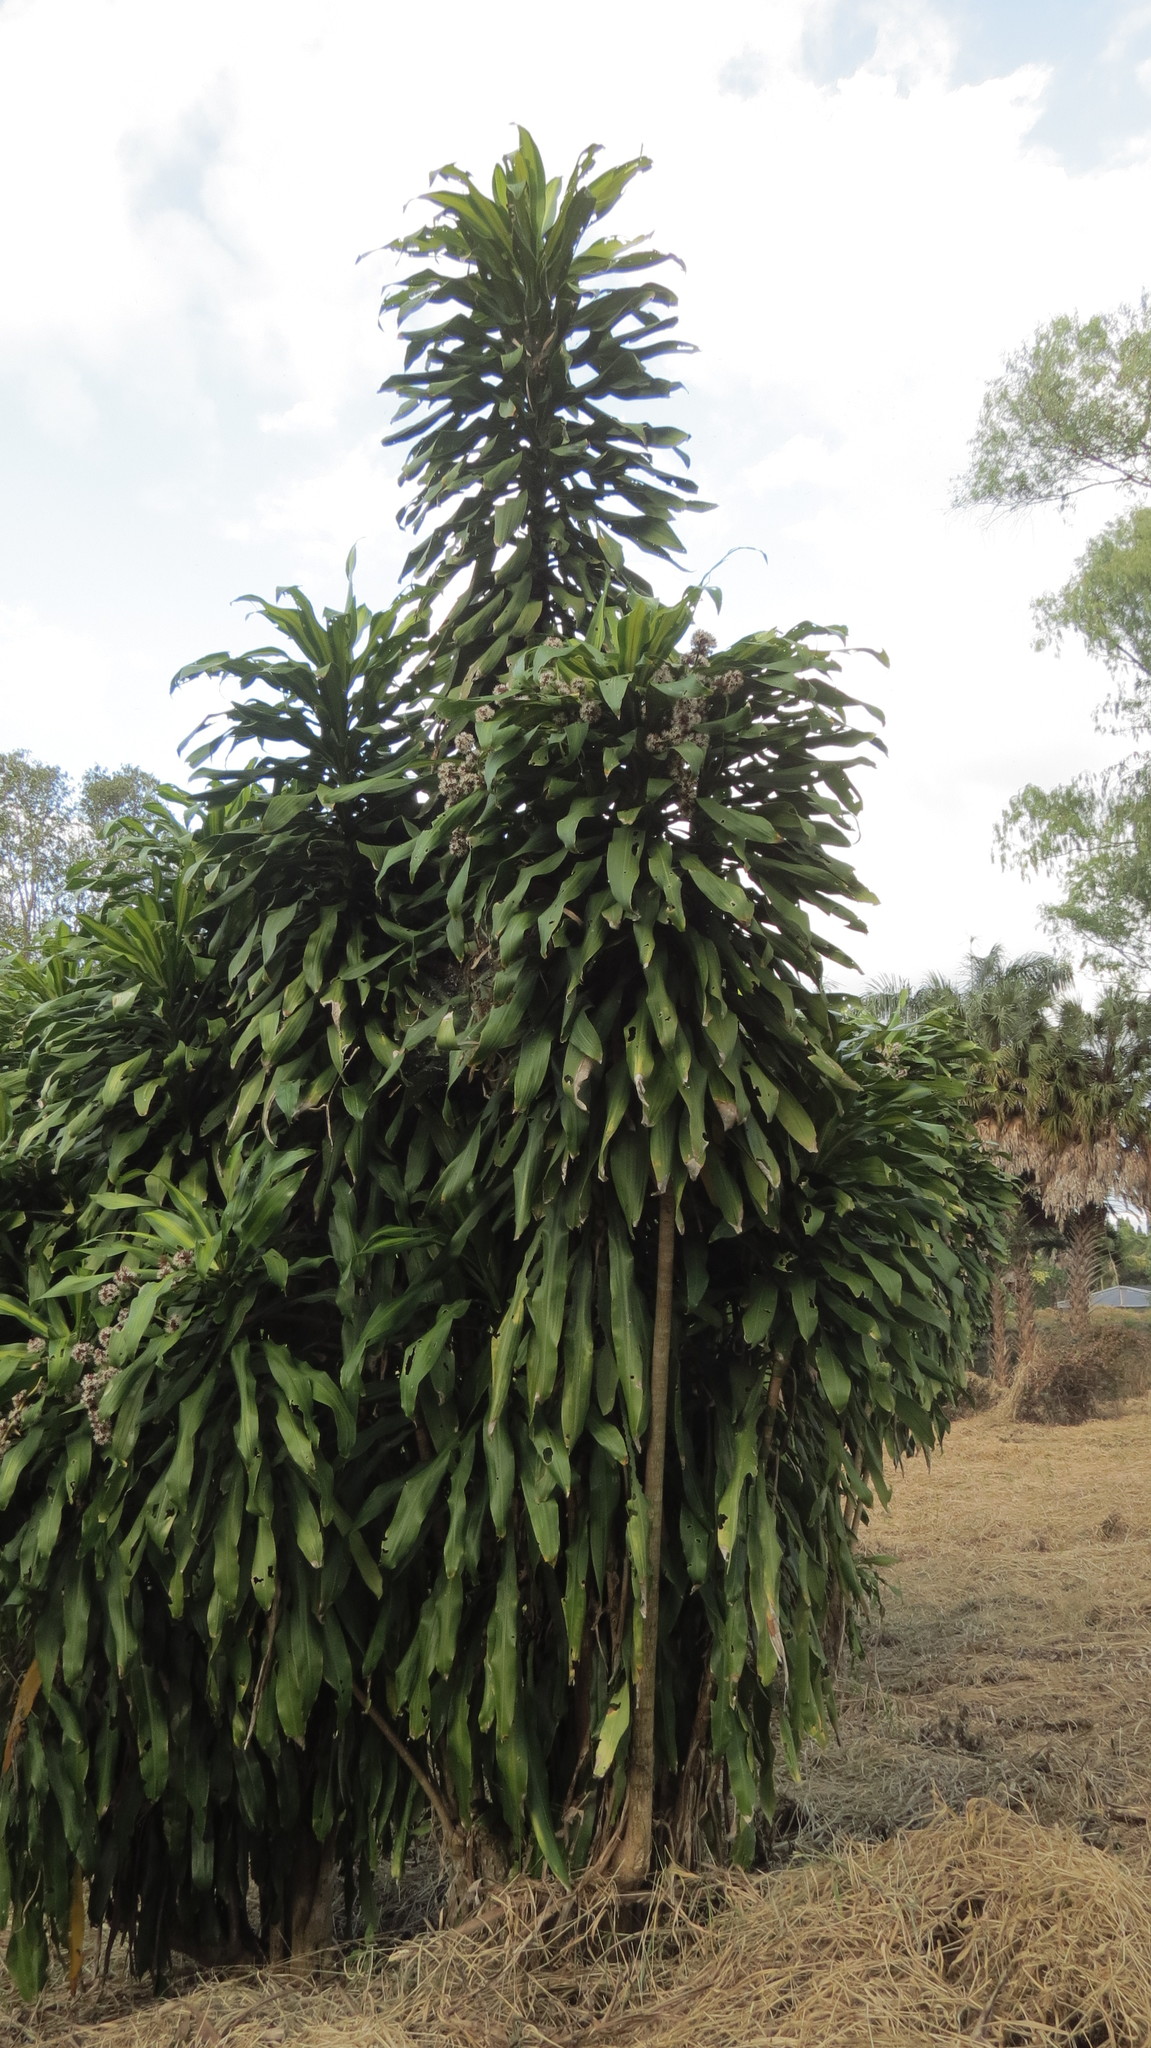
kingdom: Plantae
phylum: Tracheophyta
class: Liliopsida
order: Asparagales
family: Asparagaceae
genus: Dracaena
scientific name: Dracaena fragrans
